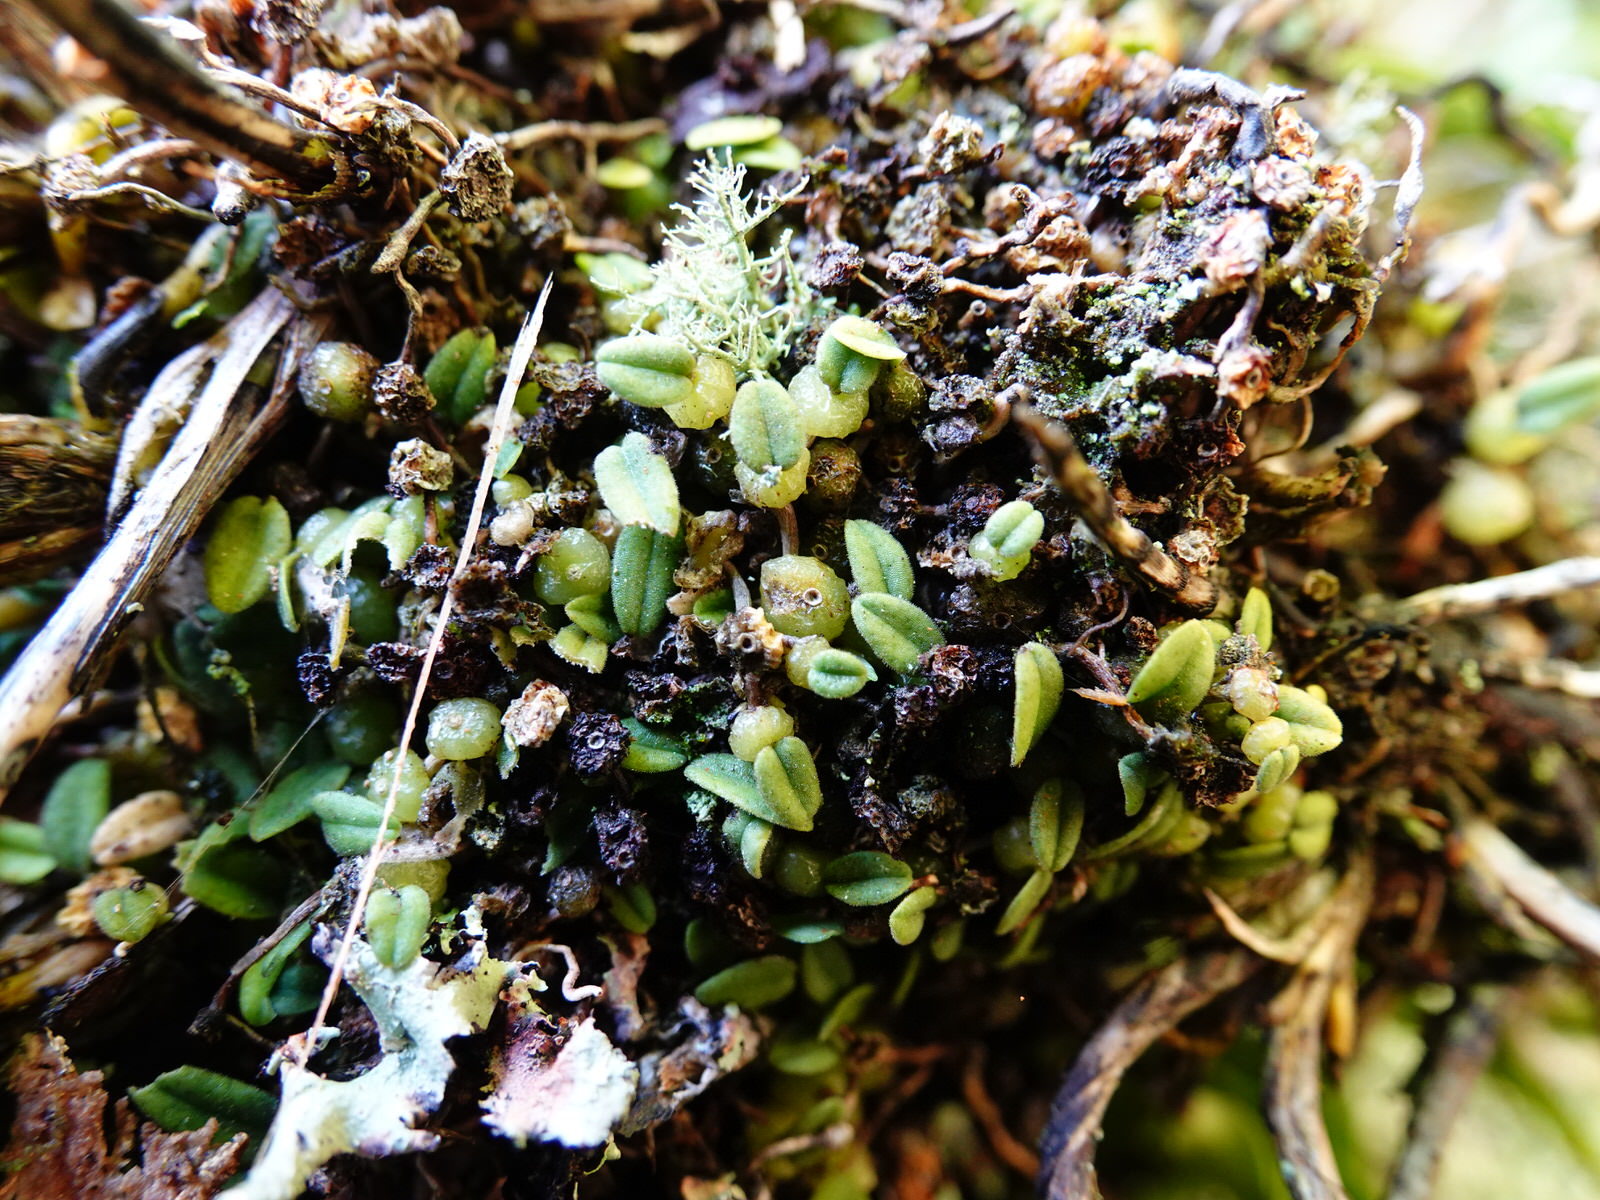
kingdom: Plantae
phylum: Tracheophyta
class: Liliopsida
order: Asparagales
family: Orchidaceae
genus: Bulbophyllum
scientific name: Bulbophyllum pygmaeum
